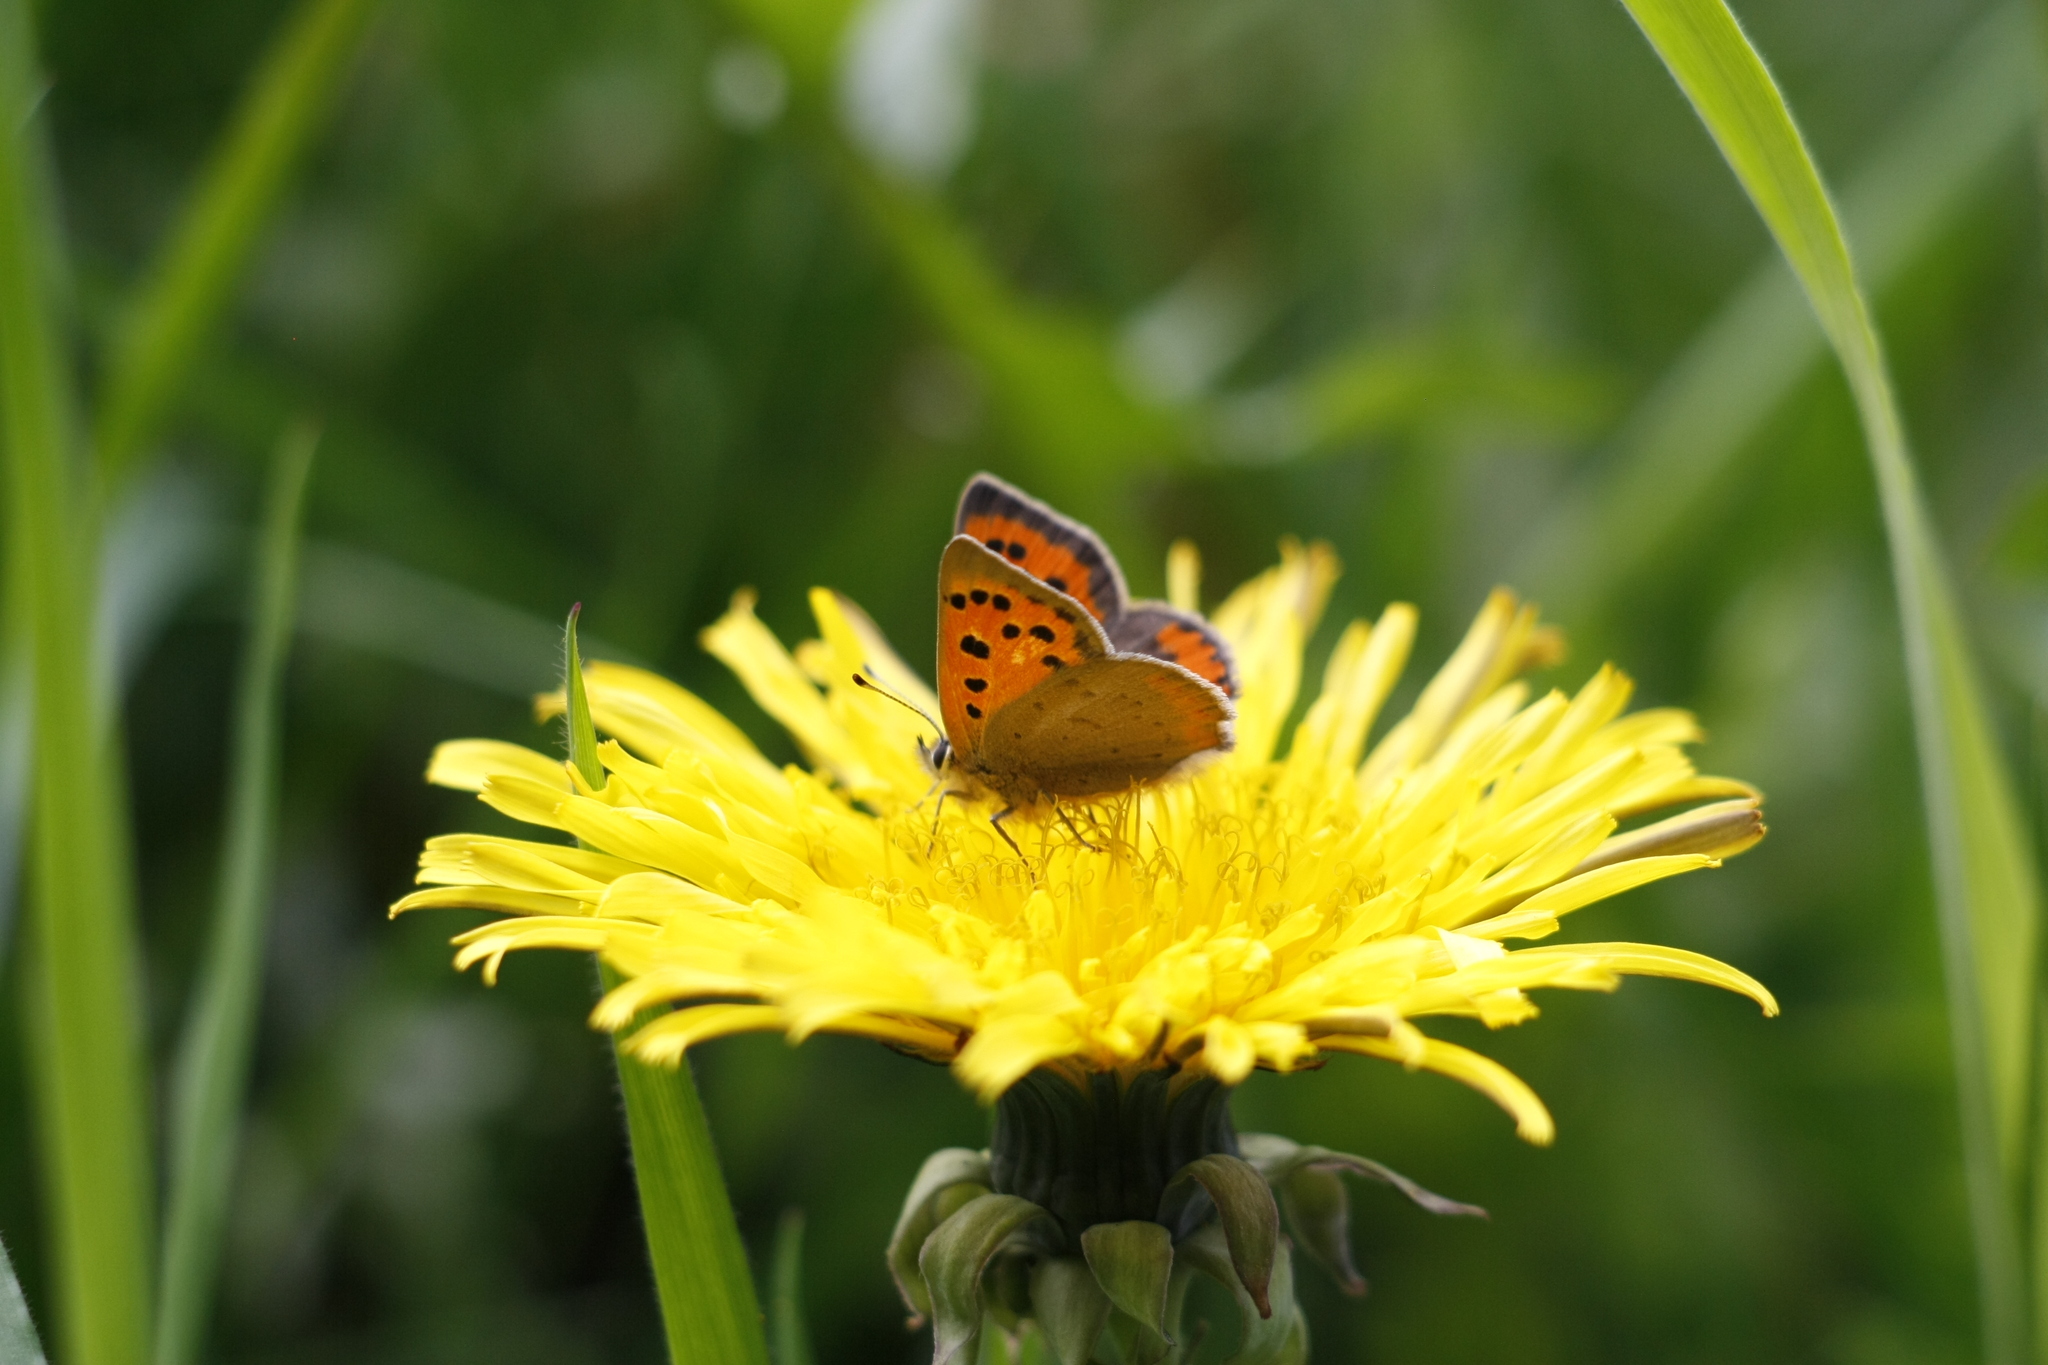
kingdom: Animalia
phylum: Arthropoda
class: Insecta
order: Lepidoptera
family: Lycaenidae
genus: Lycaena
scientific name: Lycaena phlaeas
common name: Small copper
